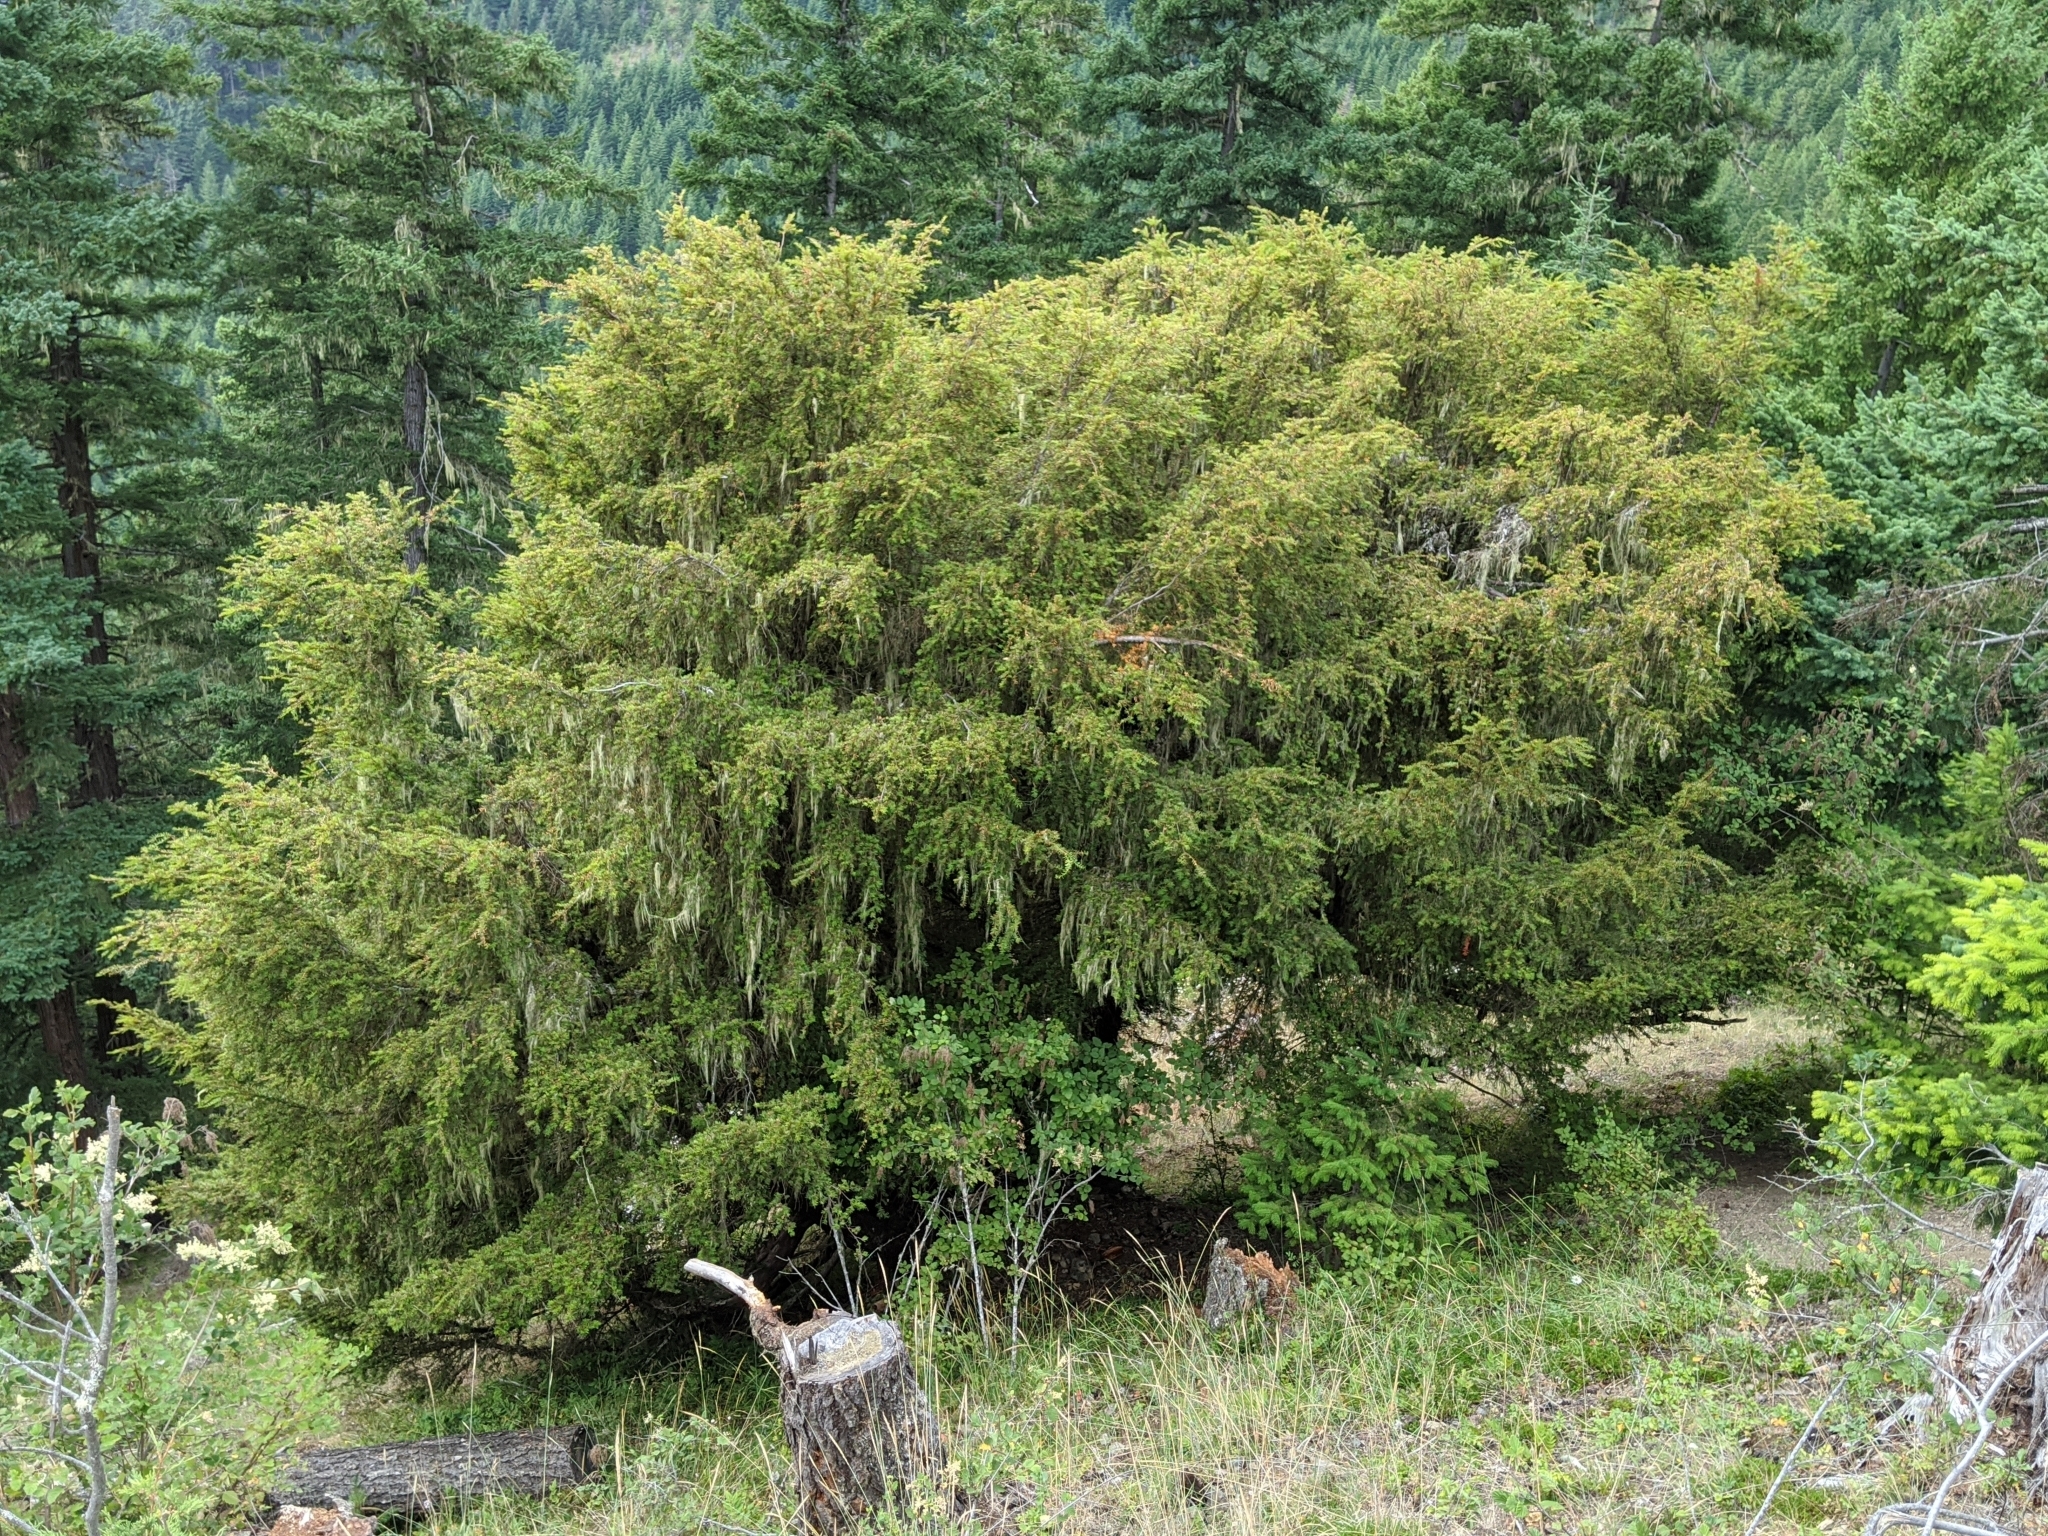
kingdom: Plantae
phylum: Tracheophyta
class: Pinopsida
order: Pinales
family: Taxaceae
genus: Taxus
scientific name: Taxus brevifolia
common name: Pacific yew
